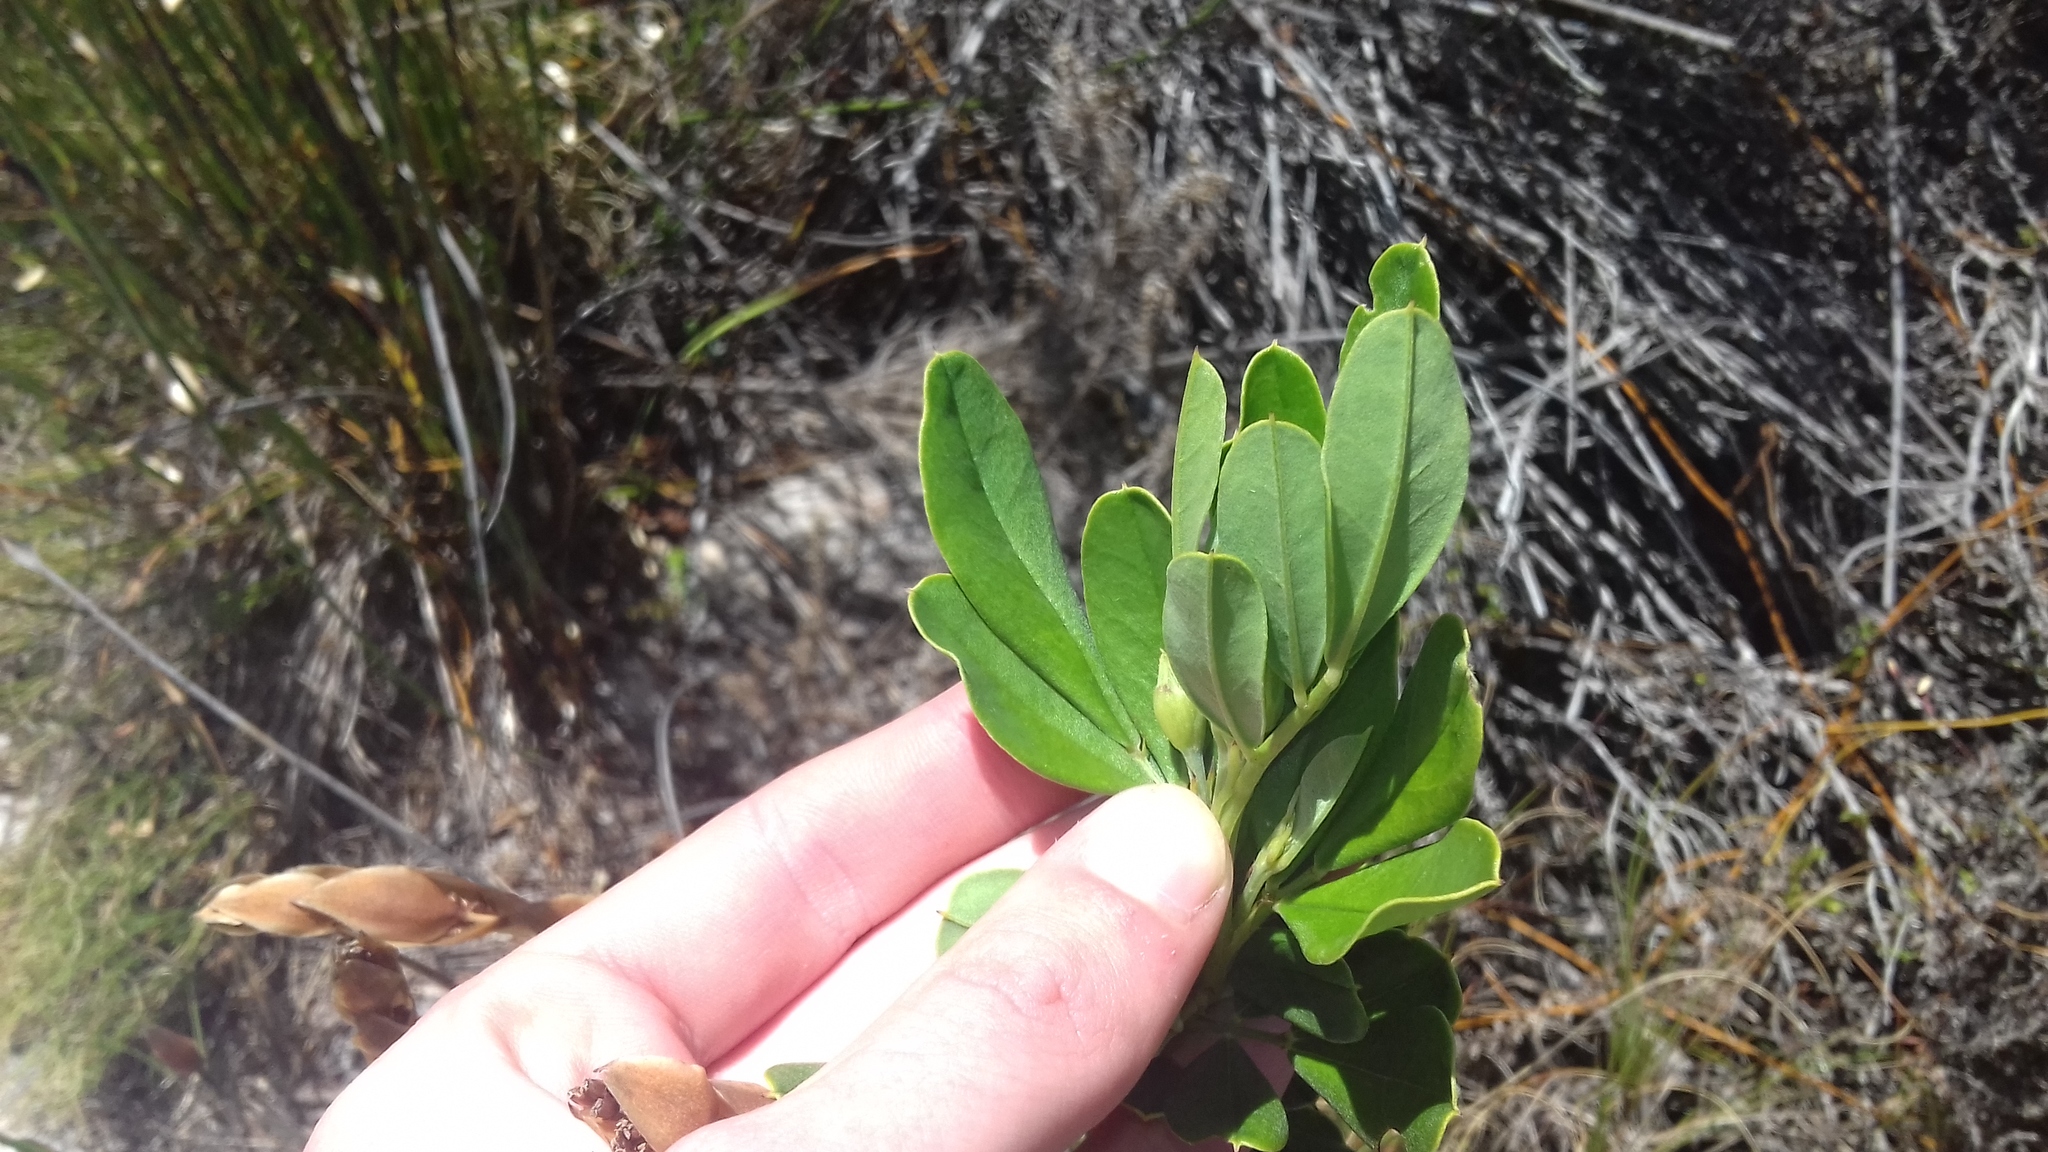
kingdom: Plantae
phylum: Tracheophyta
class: Magnoliopsida
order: Fabales
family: Fabaceae
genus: Indigofera
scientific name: Indigofera cytisoides
